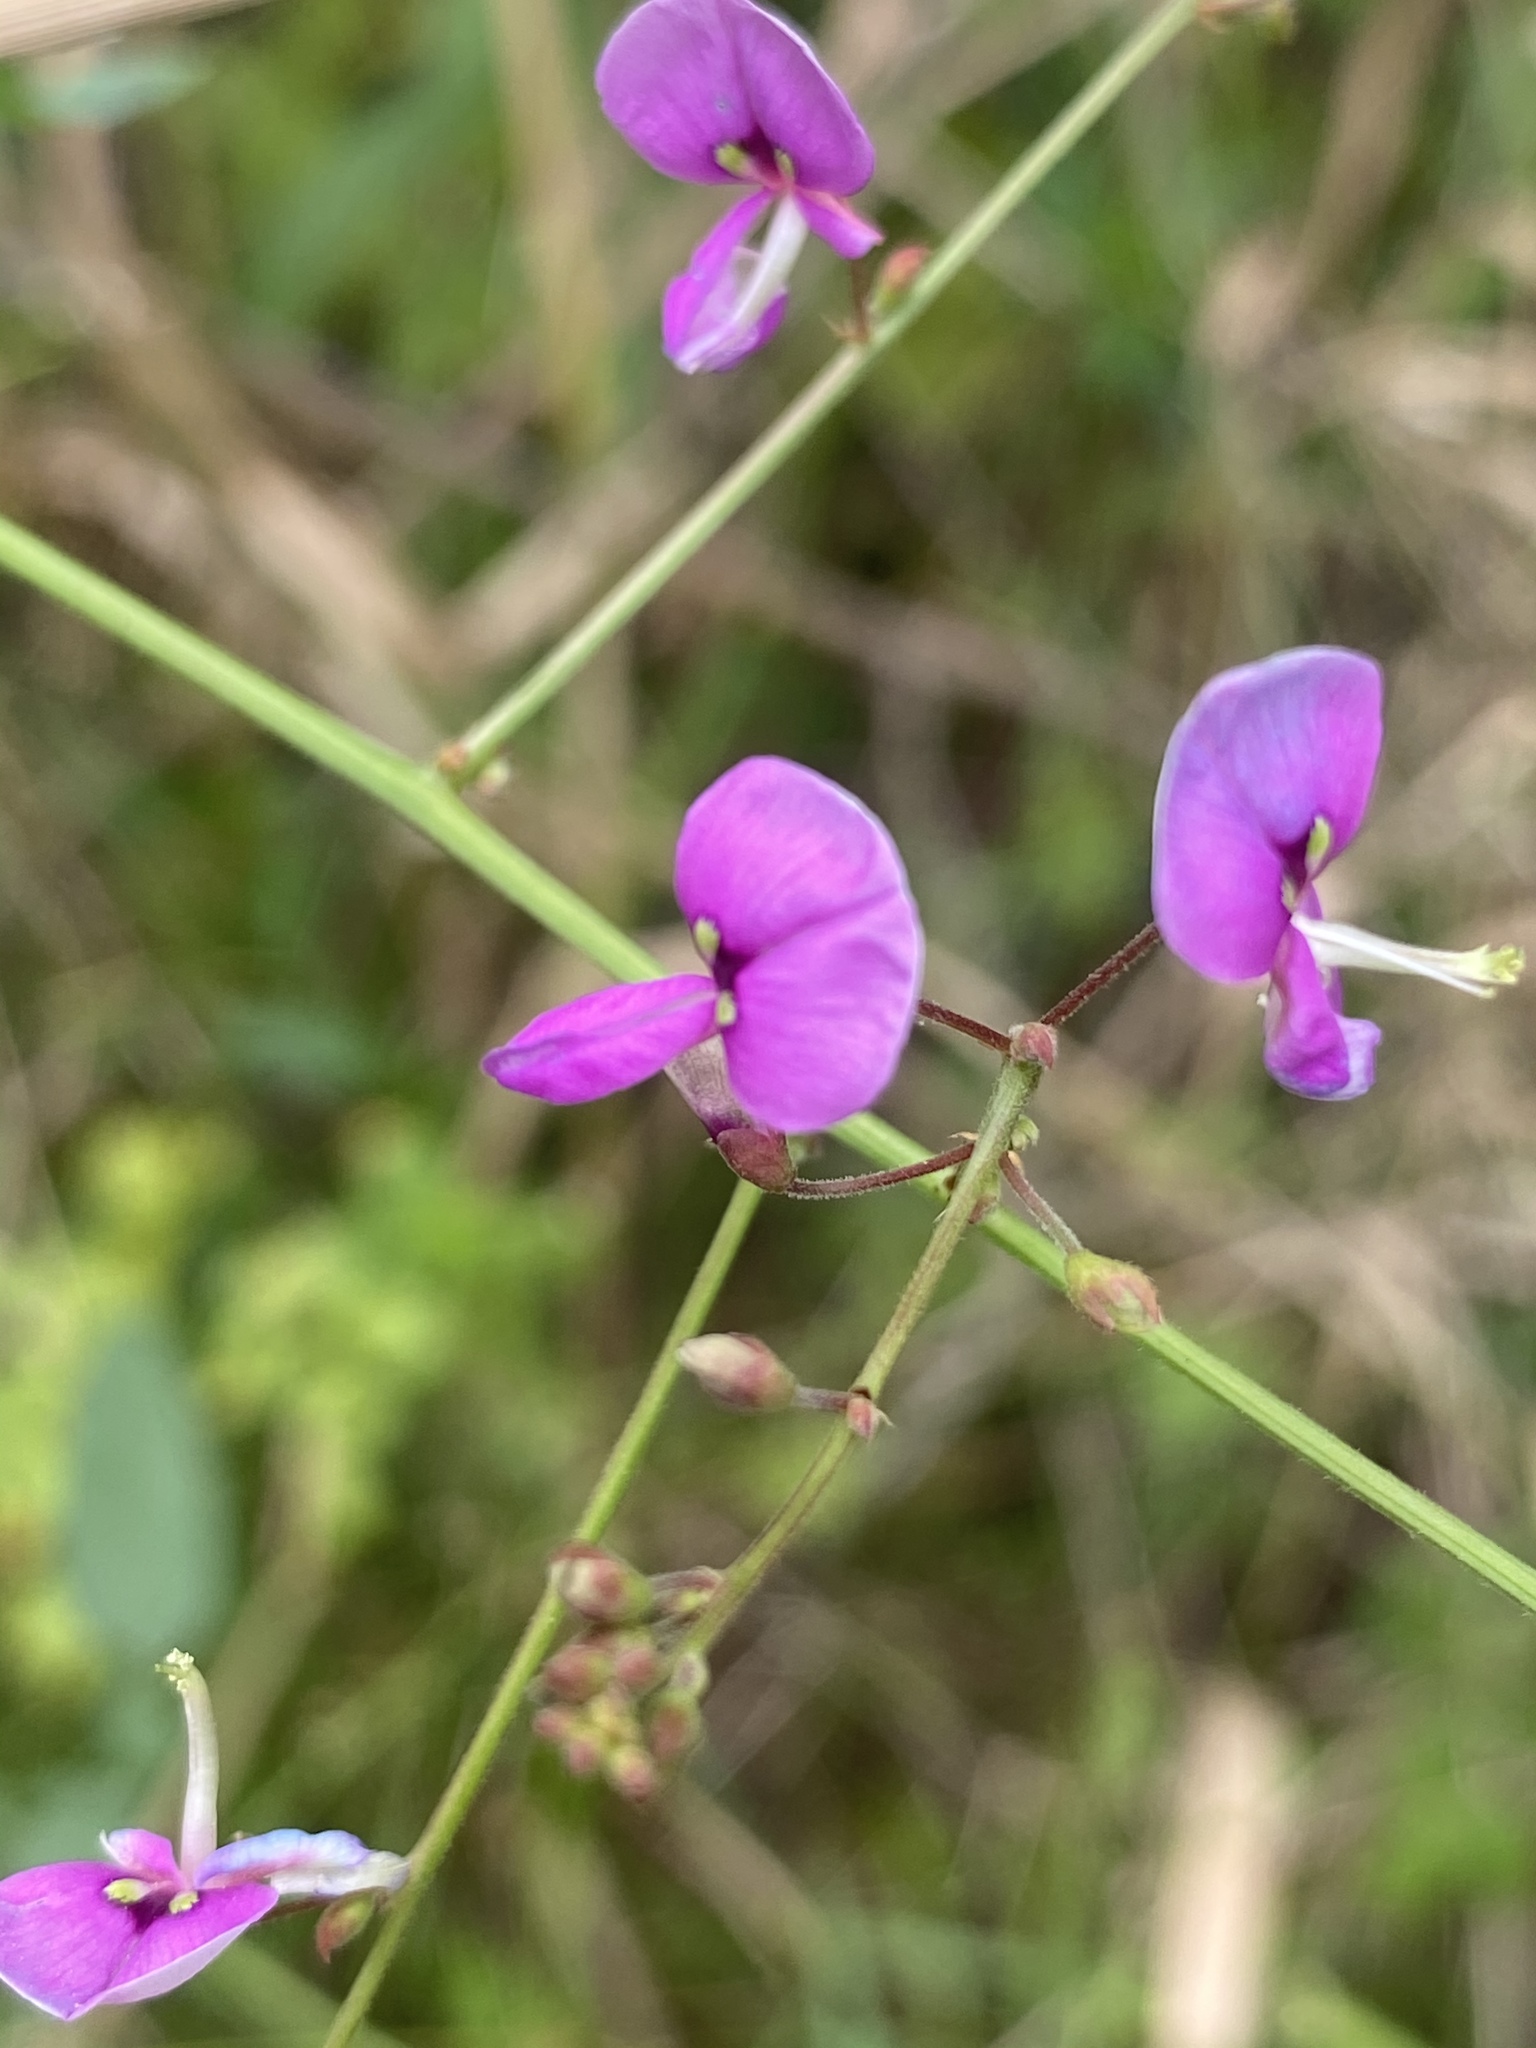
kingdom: Plantae
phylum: Tracheophyta
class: Magnoliopsida
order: Fabales
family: Fabaceae
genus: Desmodium
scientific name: Desmodium paniculatum
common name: Panicled tick-clover
